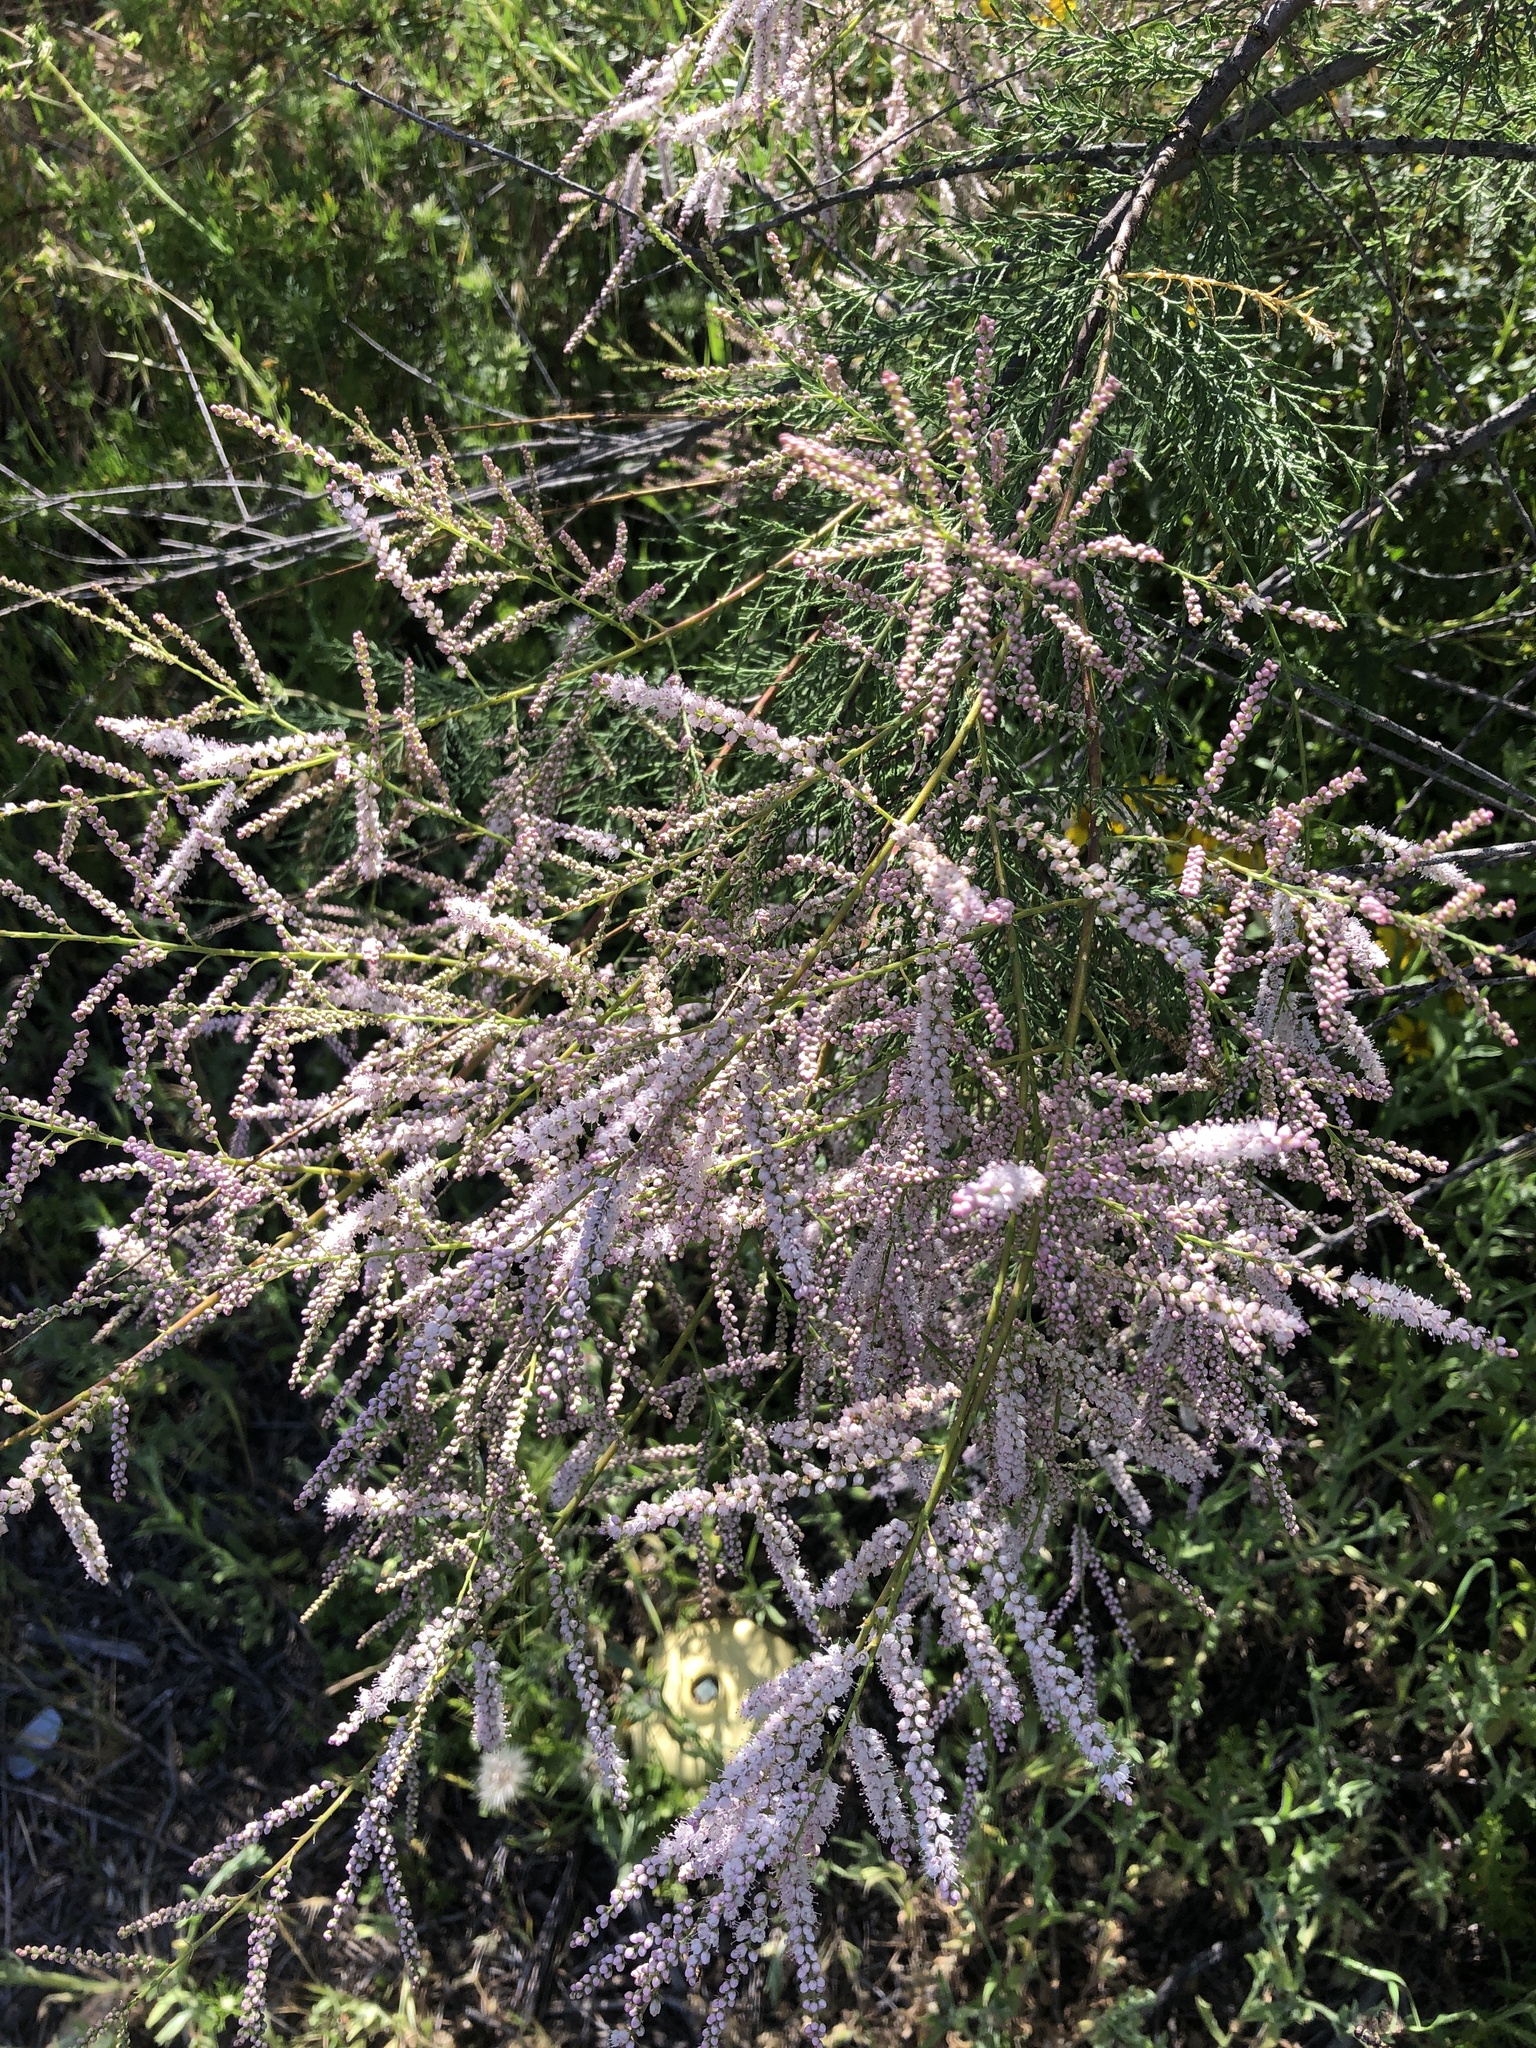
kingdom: Plantae
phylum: Tracheophyta
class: Magnoliopsida
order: Caryophyllales
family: Tamaricaceae
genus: Tamarix
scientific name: Tamarix
